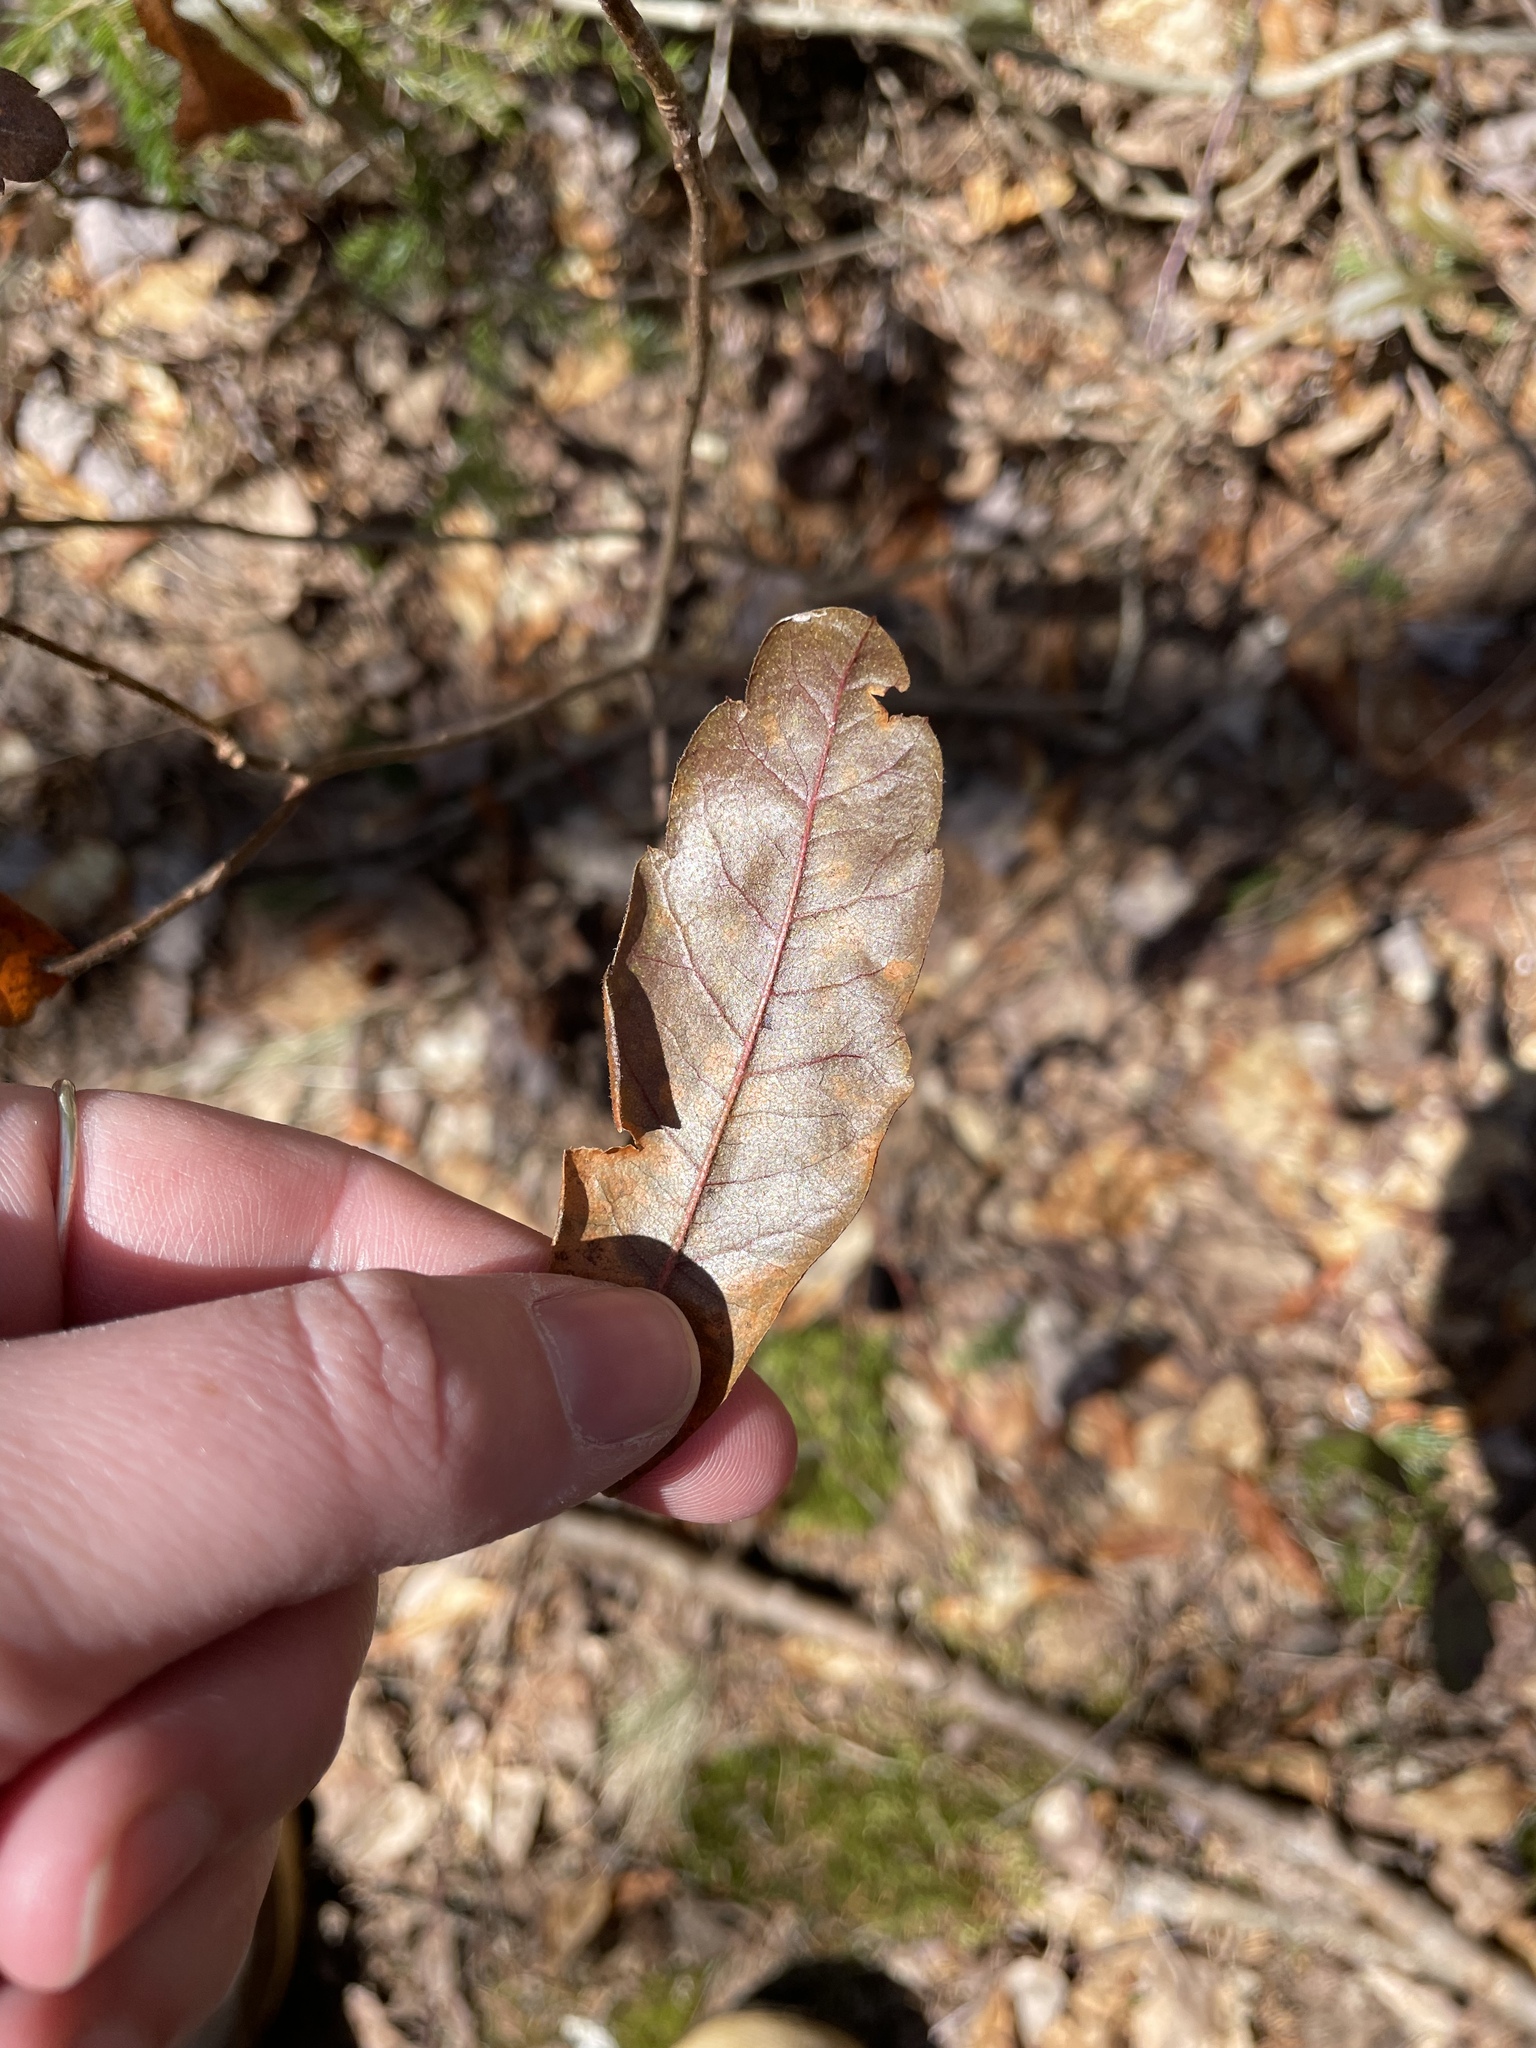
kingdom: Plantae
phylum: Tracheophyta
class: Magnoliopsida
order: Fagales
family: Myricaceae
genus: Morella
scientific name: Morella pensylvanica
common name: Northern bayberry
